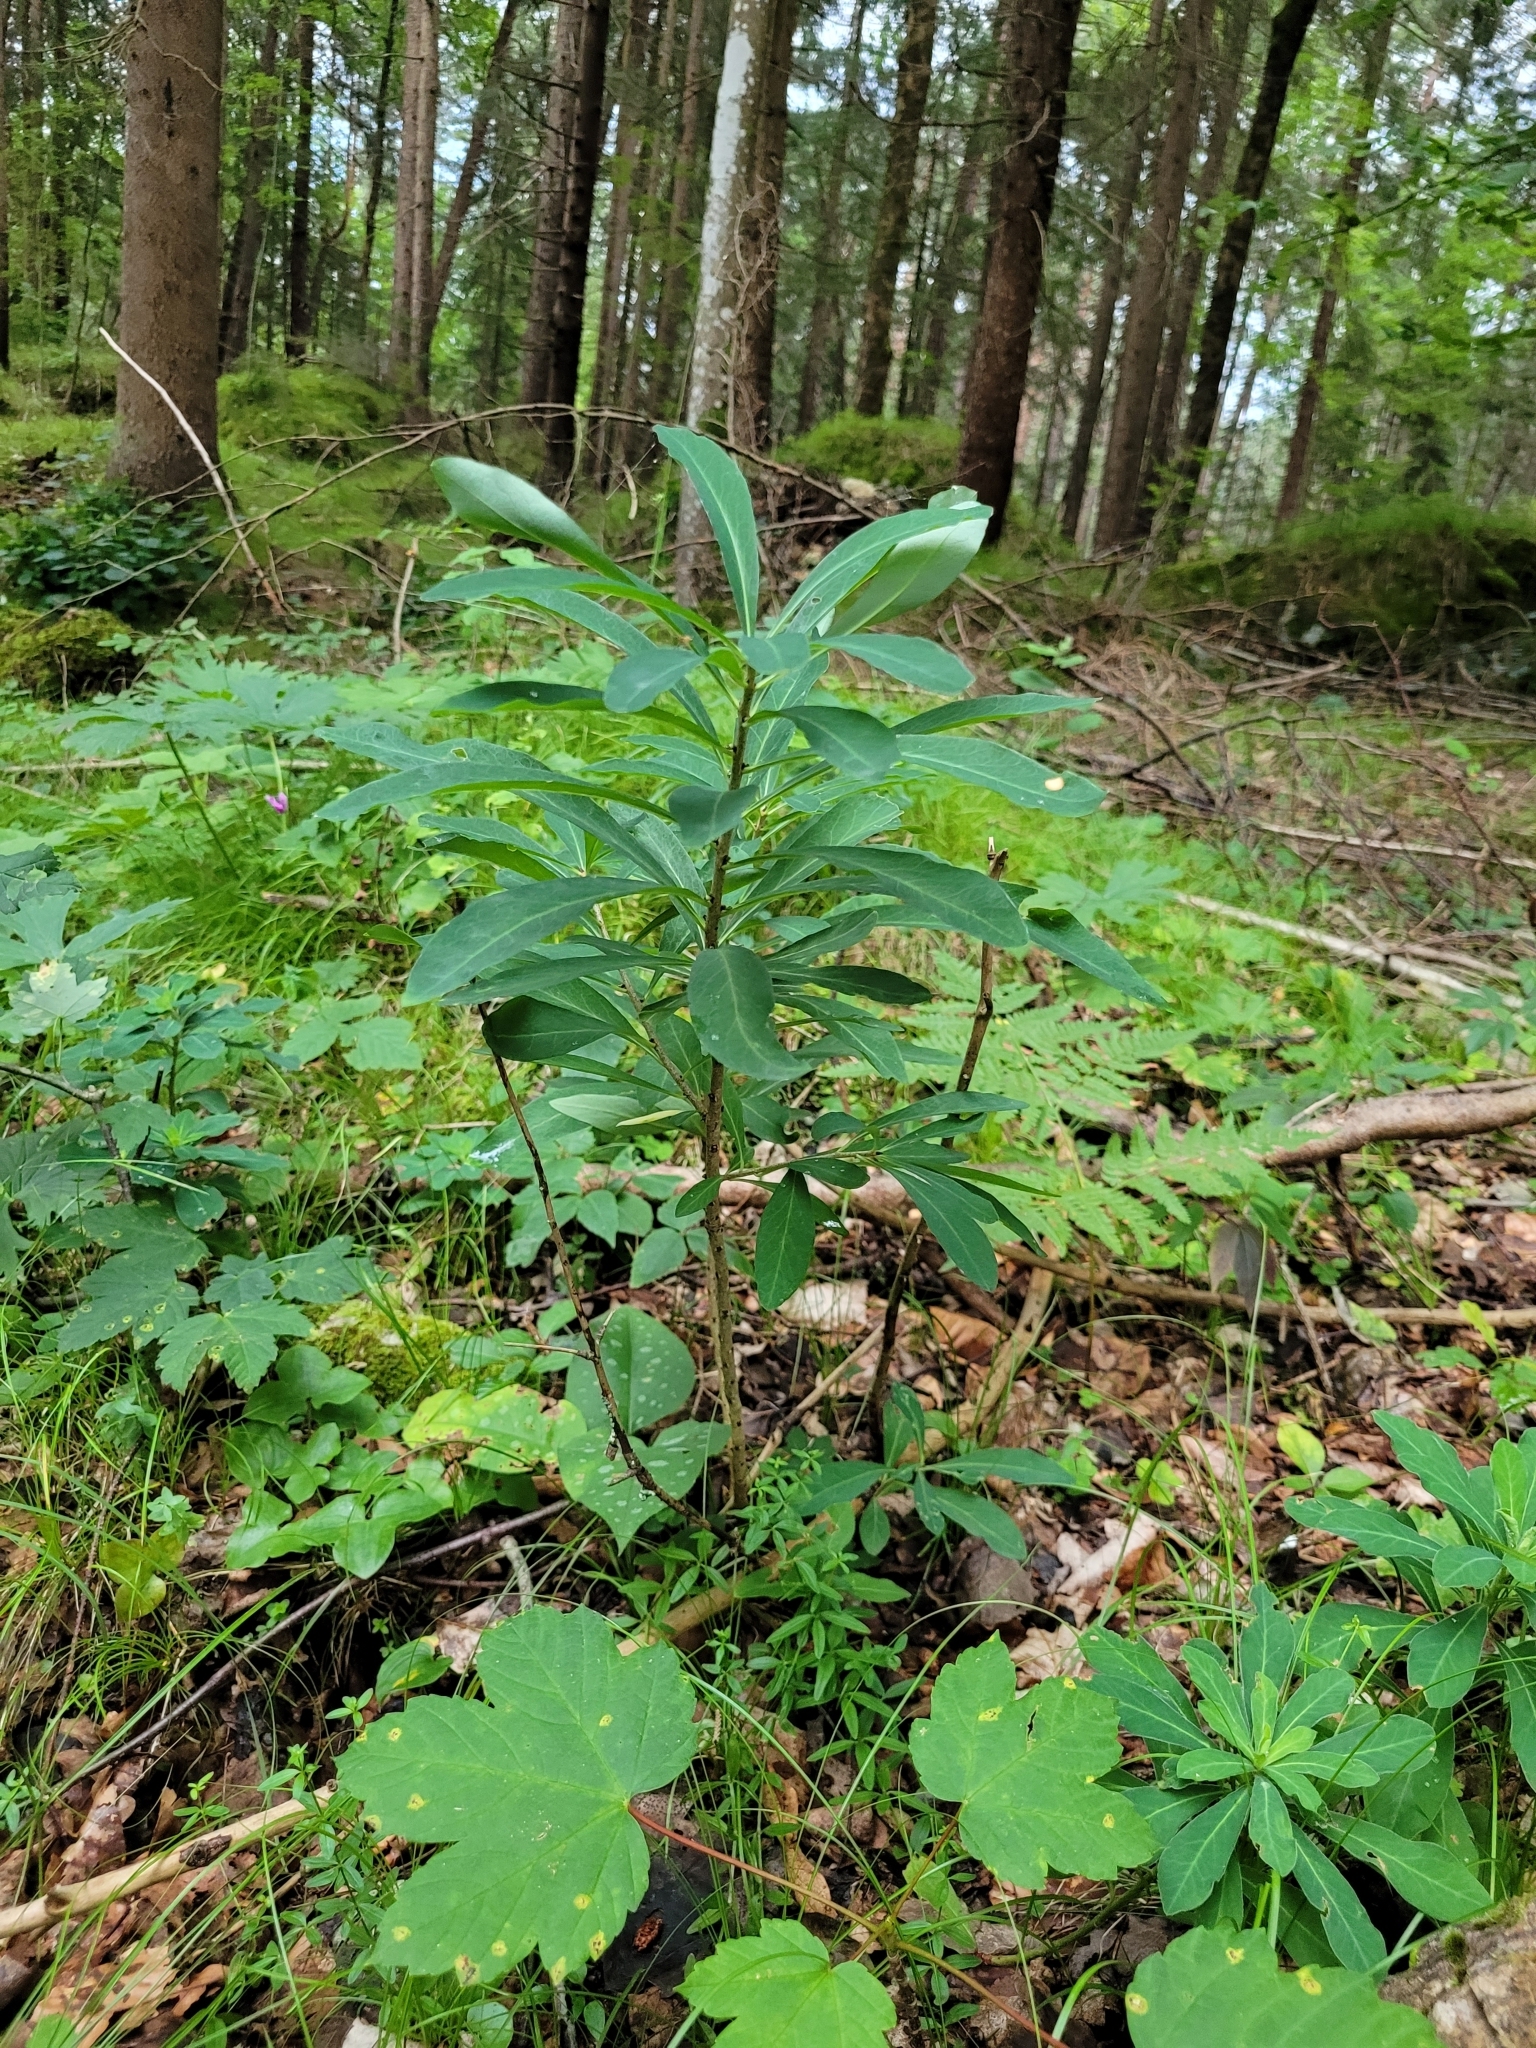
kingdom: Plantae
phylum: Tracheophyta
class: Magnoliopsida
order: Malvales
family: Thymelaeaceae
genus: Daphne
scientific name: Daphne mezereum
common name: Mezereon
